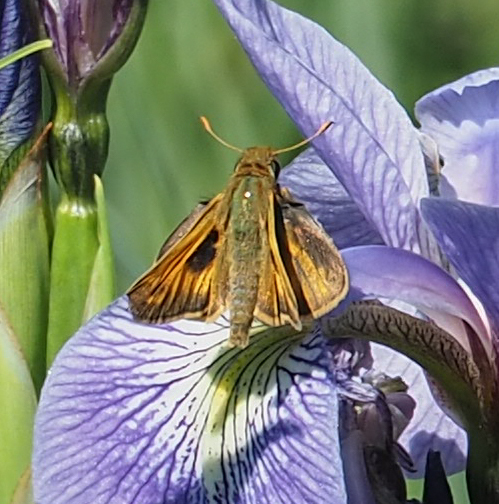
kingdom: Animalia
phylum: Arthropoda
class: Insecta
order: Lepidoptera
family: Hesperiidae
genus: Atalopedes
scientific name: Atalopedes
